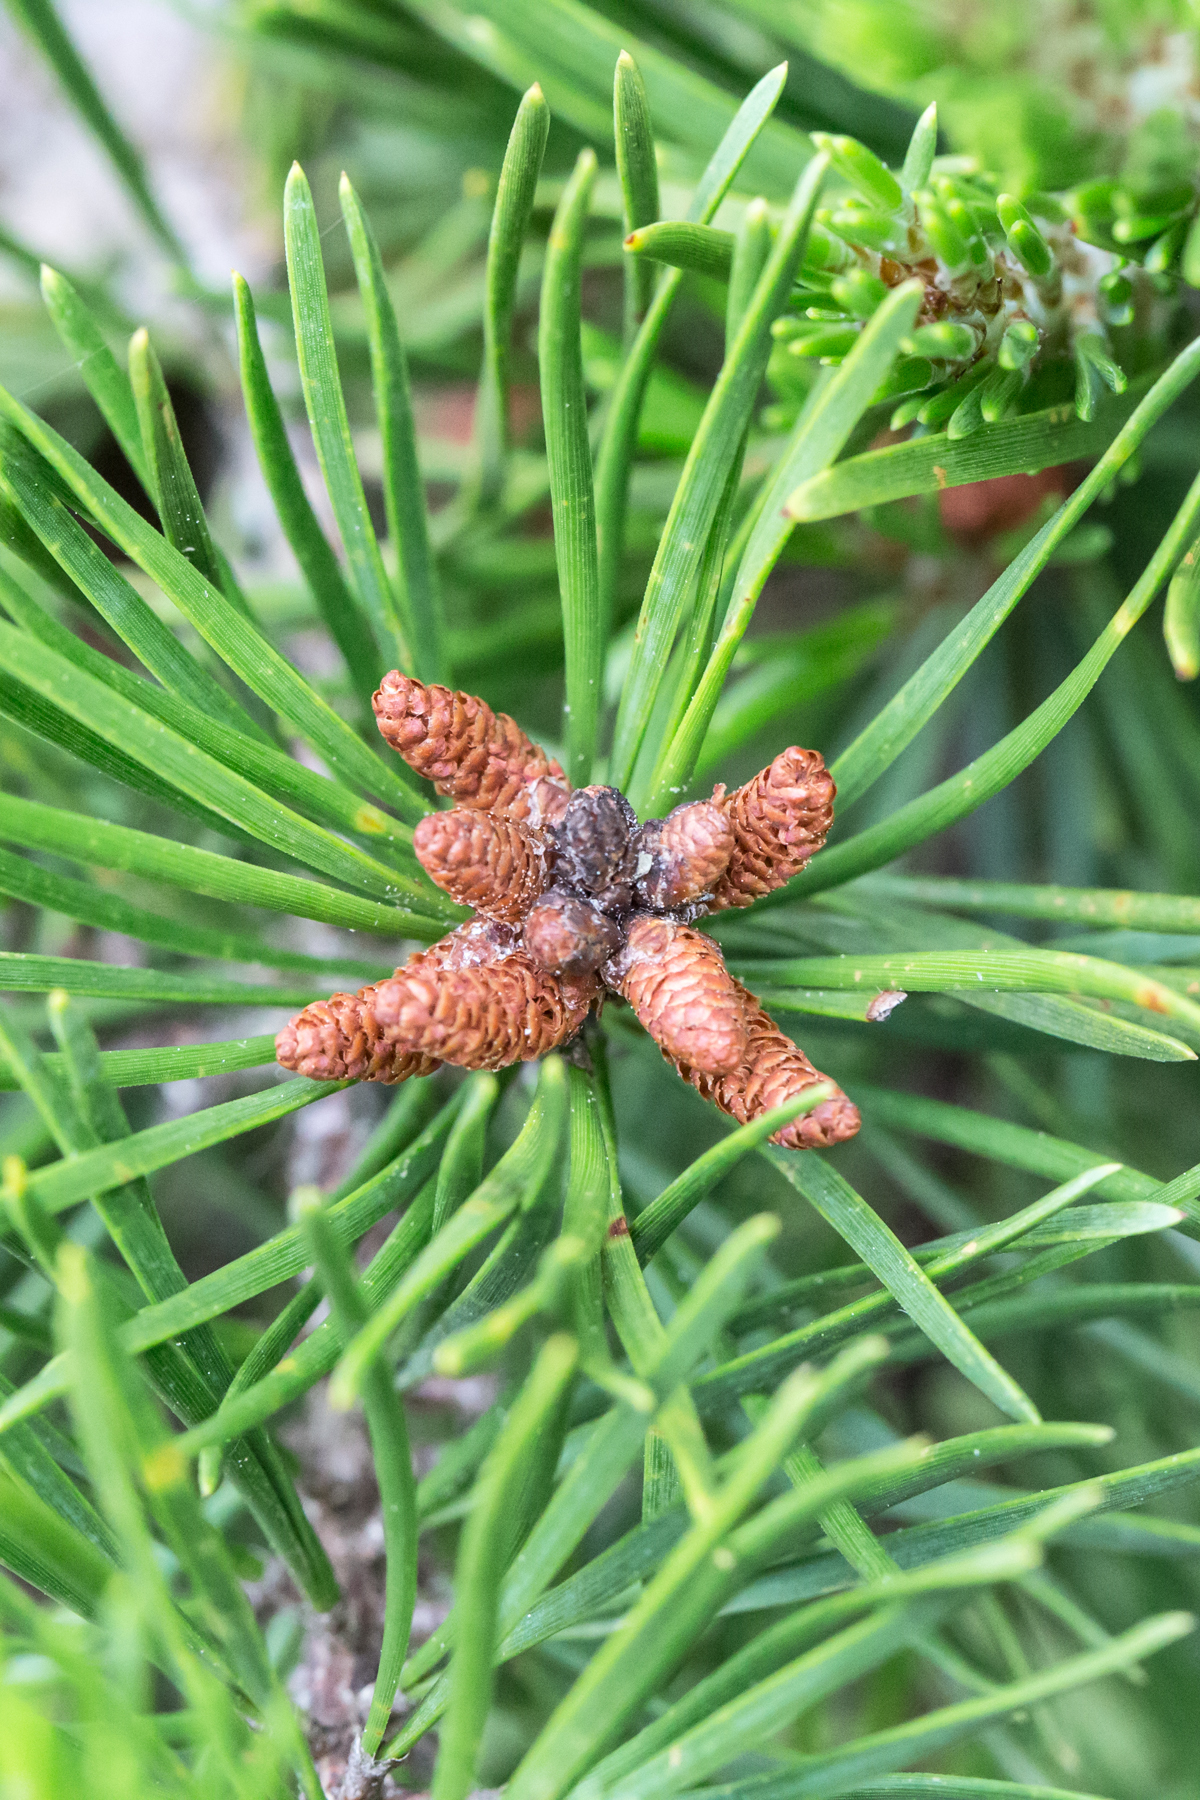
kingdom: Plantae
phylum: Tracheophyta
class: Pinopsida
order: Pinales
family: Pinaceae
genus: Pinus
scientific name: Pinus virginiana
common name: Scrub pine
